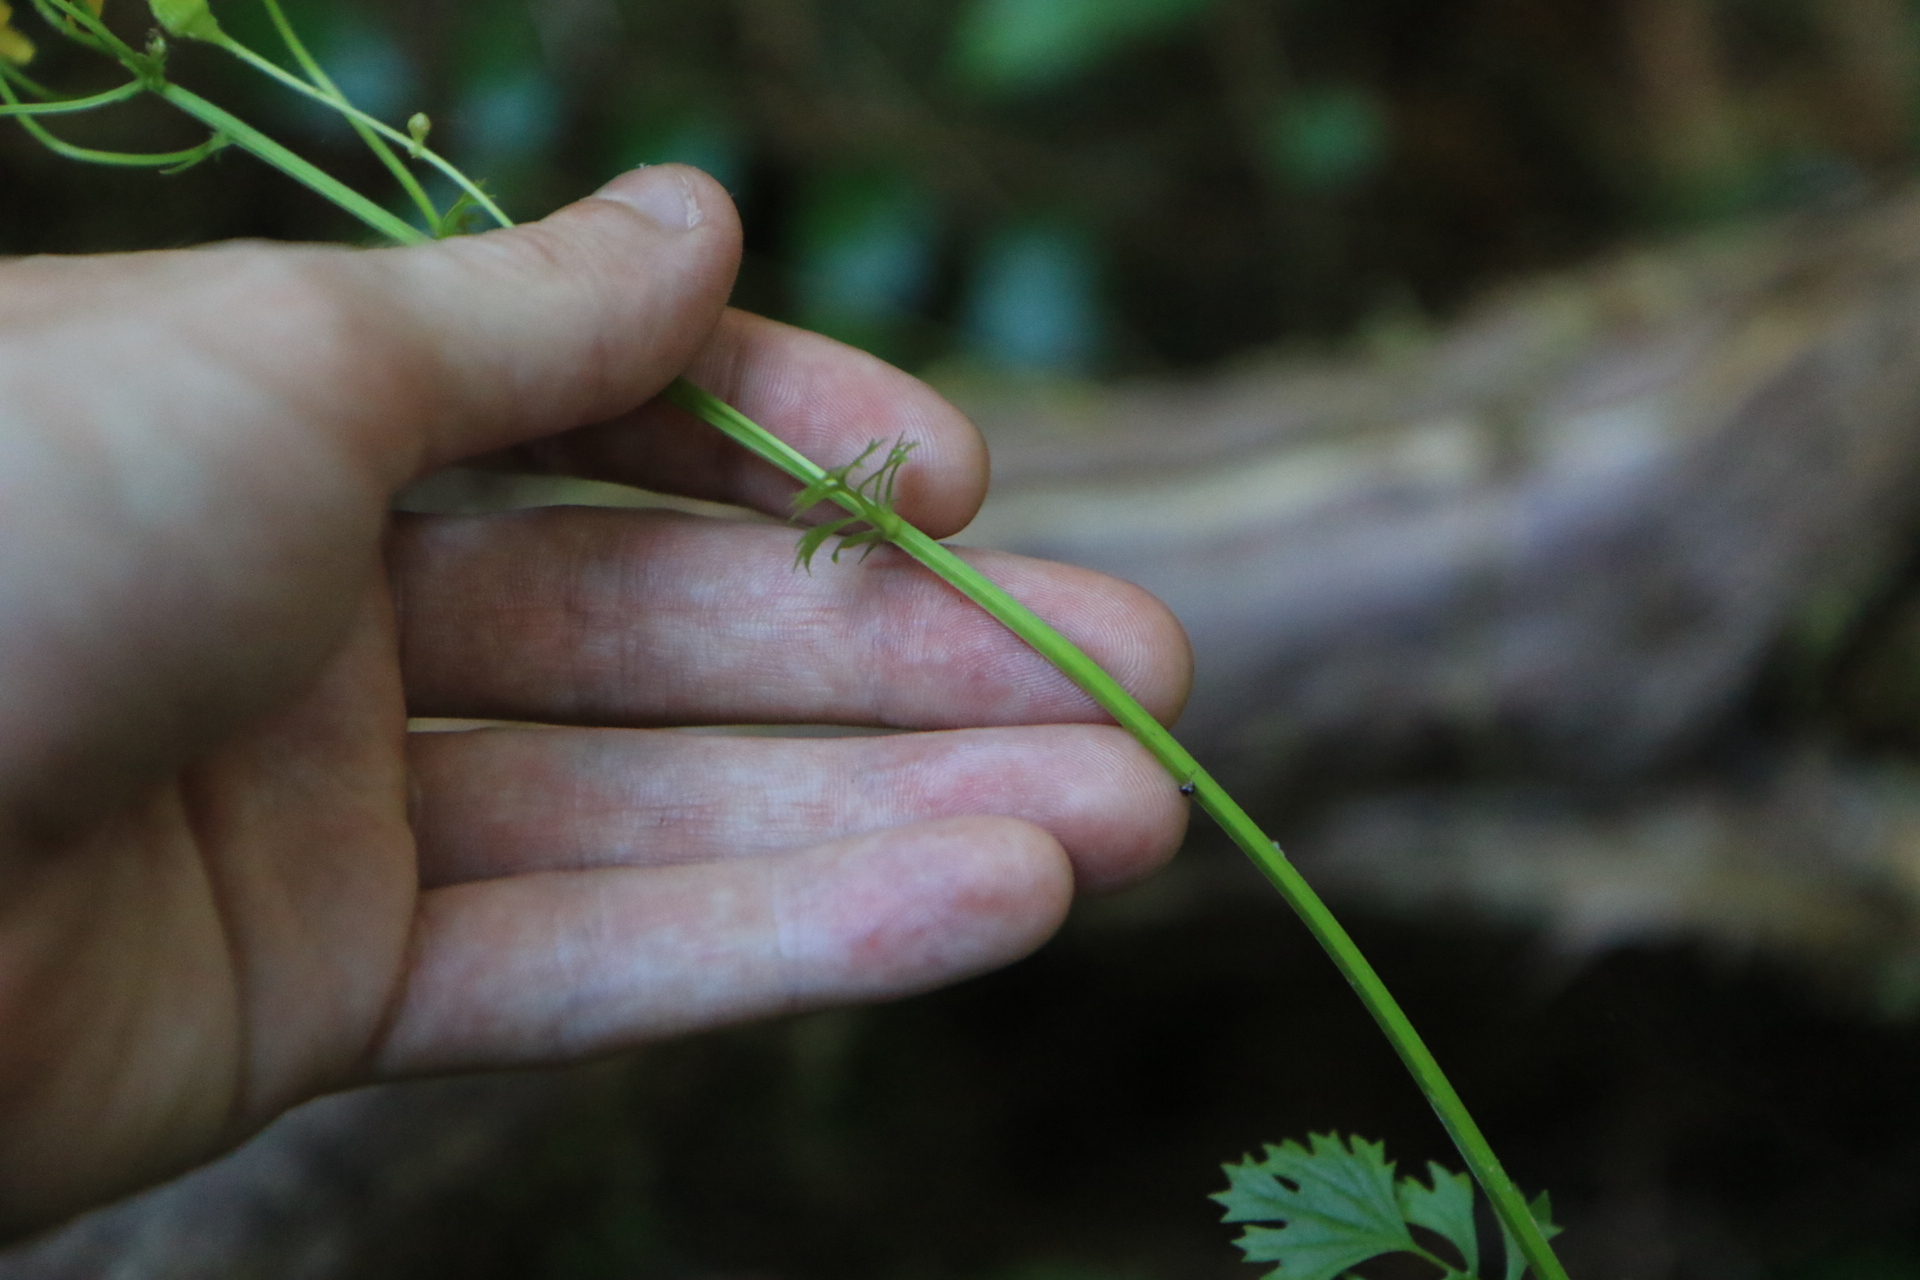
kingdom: Plantae
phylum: Tracheophyta
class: Magnoliopsida
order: Asterales
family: Asteraceae
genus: Packera
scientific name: Packera bolanderi
